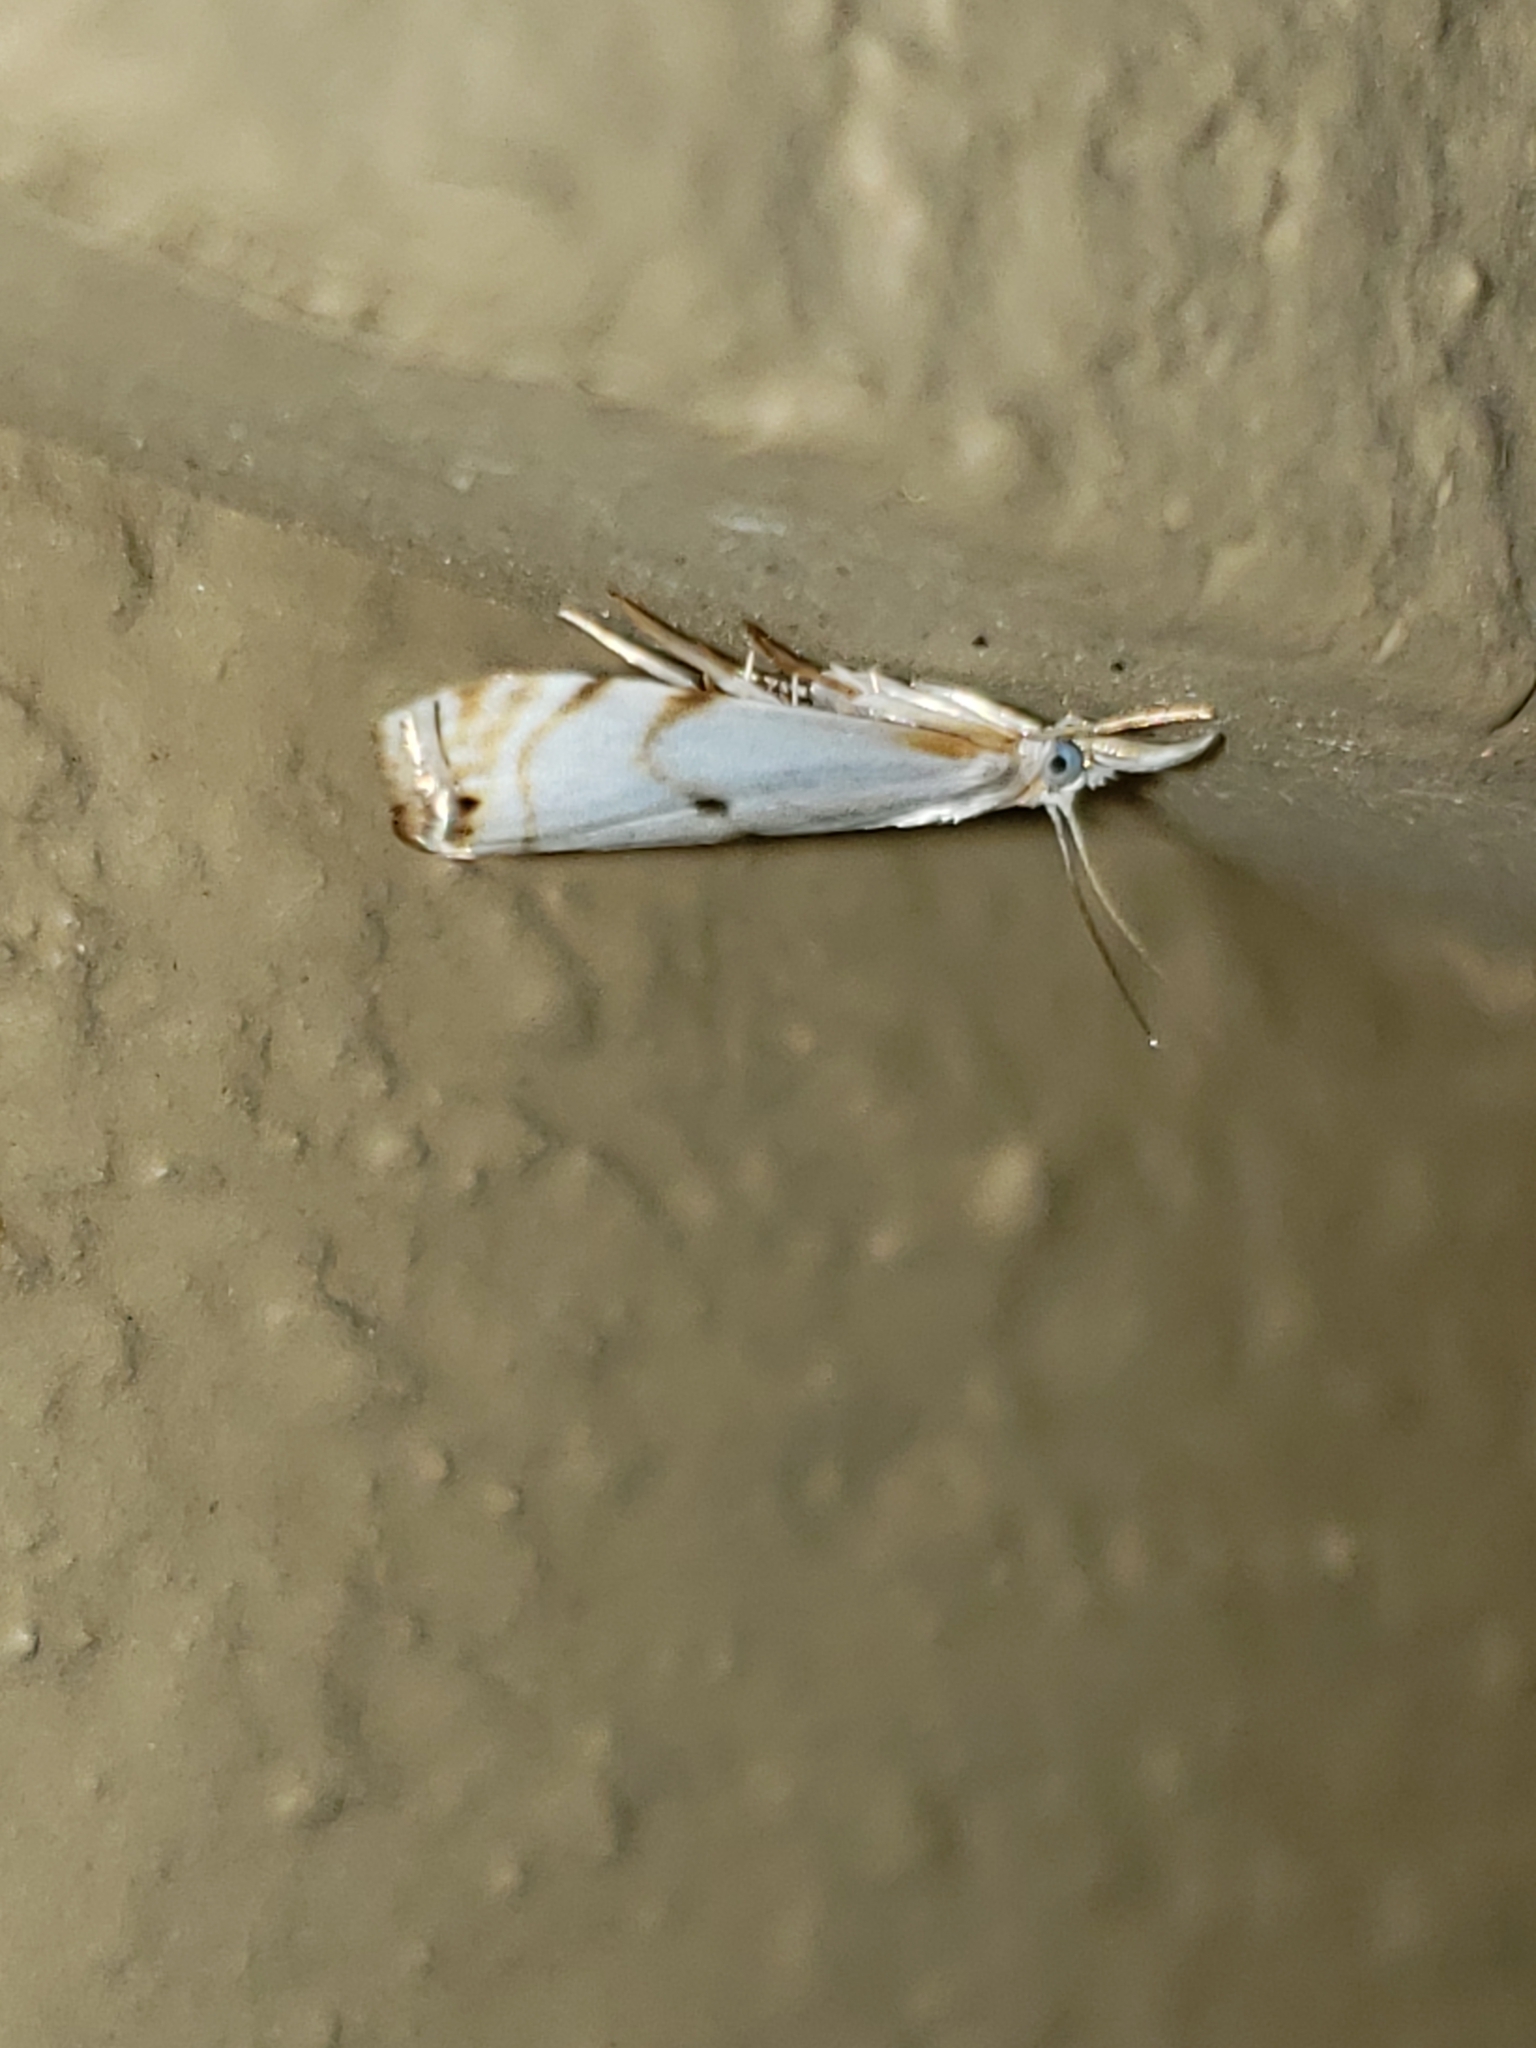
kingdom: Animalia
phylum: Arthropoda
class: Insecta
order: Lepidoptera
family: Crambidae
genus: Microcrambus
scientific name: Microcrambus biguttellus
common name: Gold-stripe grass-veneer moth
